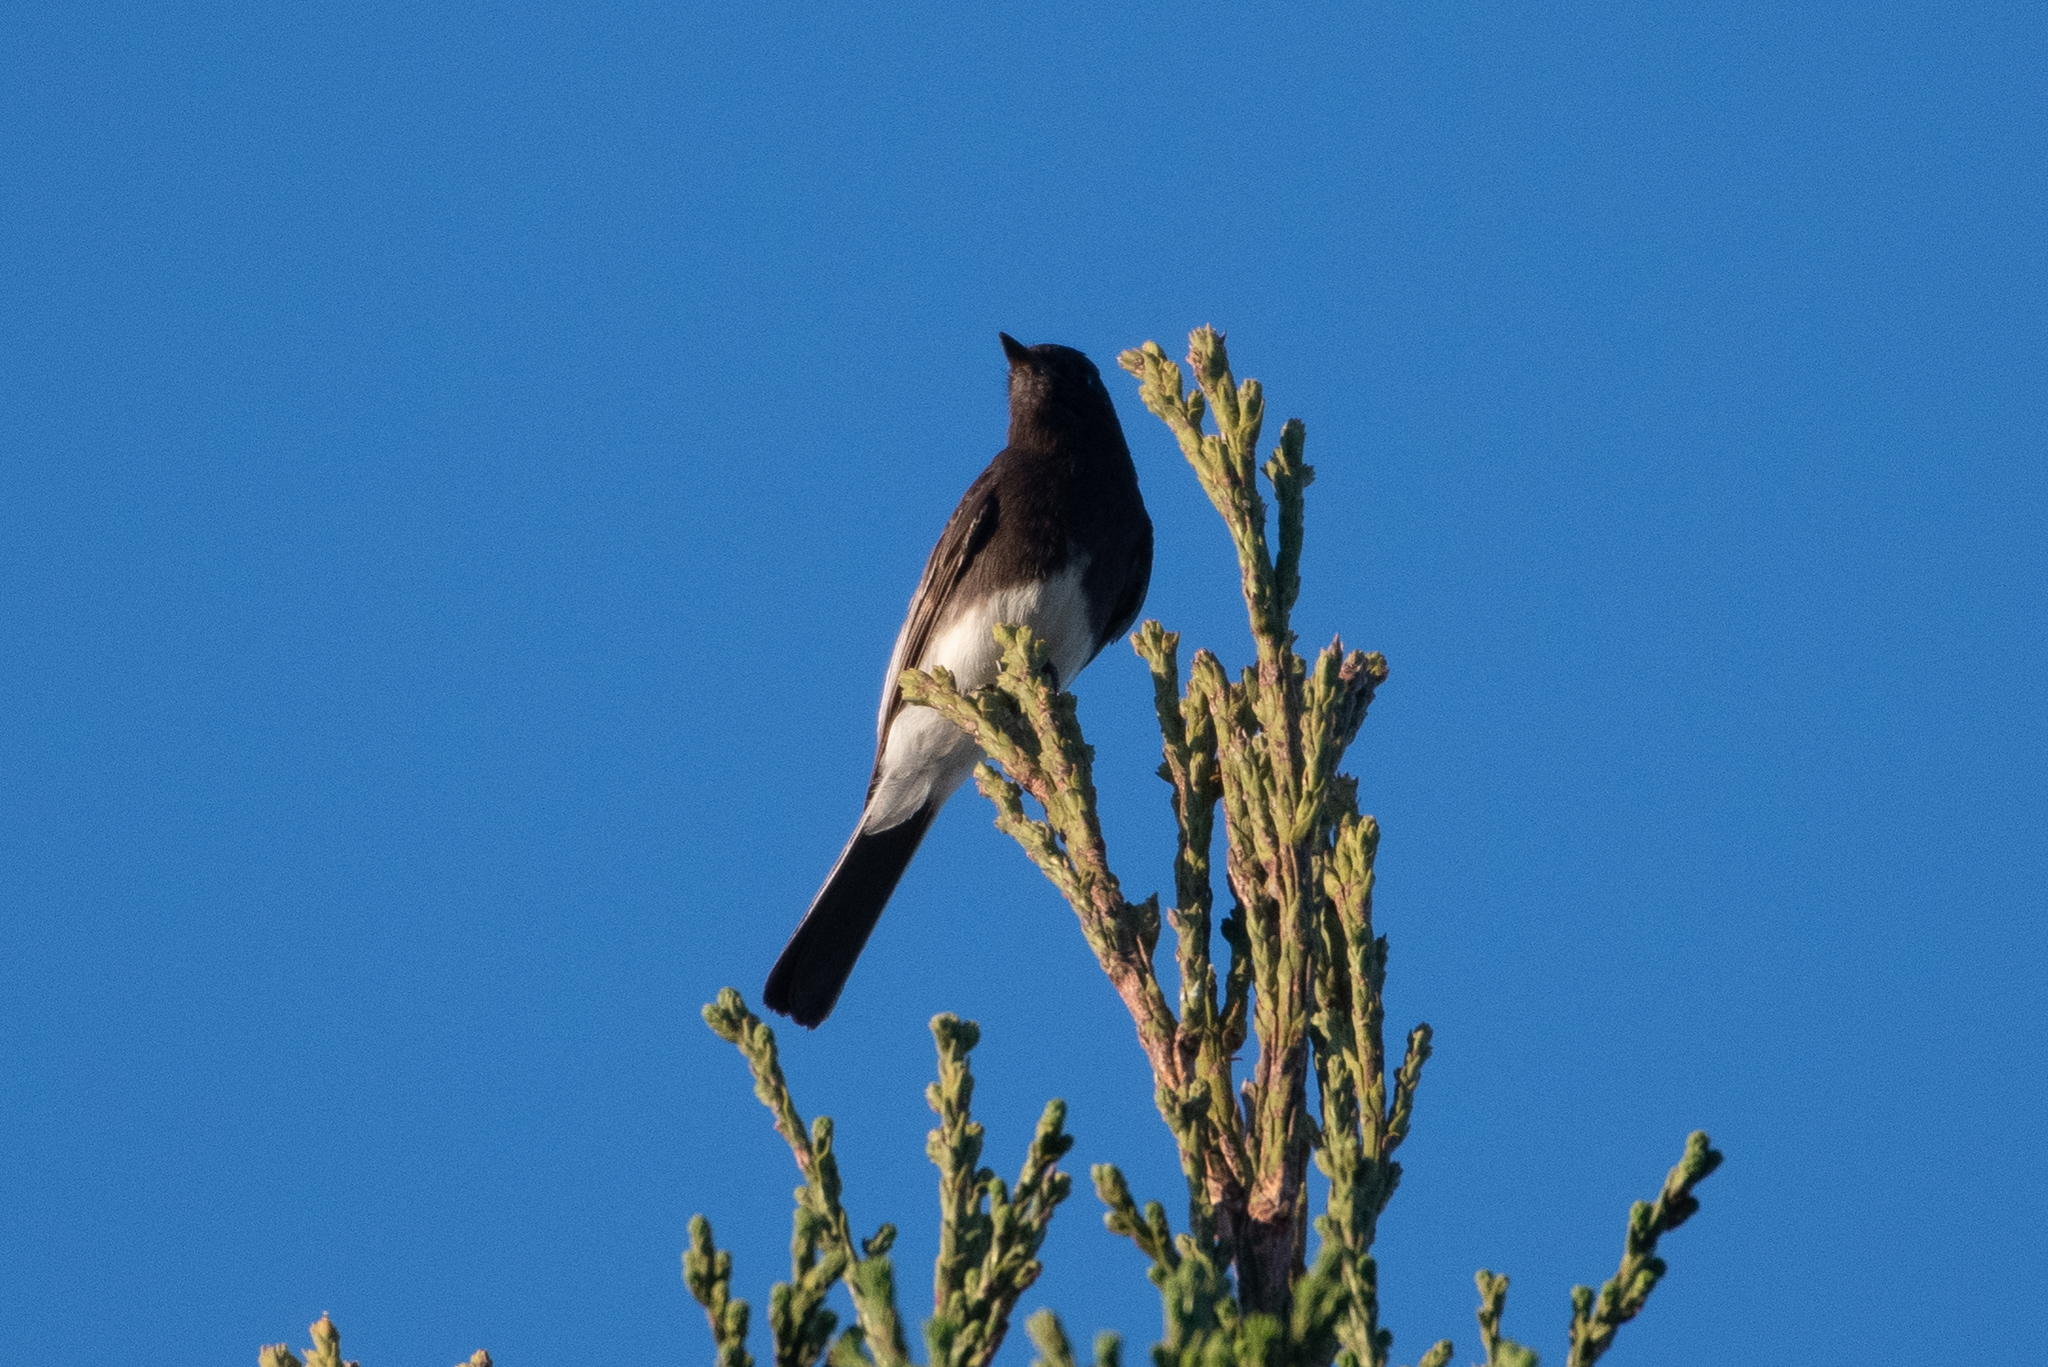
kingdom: Animalia
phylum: Chordata
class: Aves
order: Passeriformes
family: Tyrannidae
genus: Sayornis
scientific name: Sayornis nigricans
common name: Black phoebe
